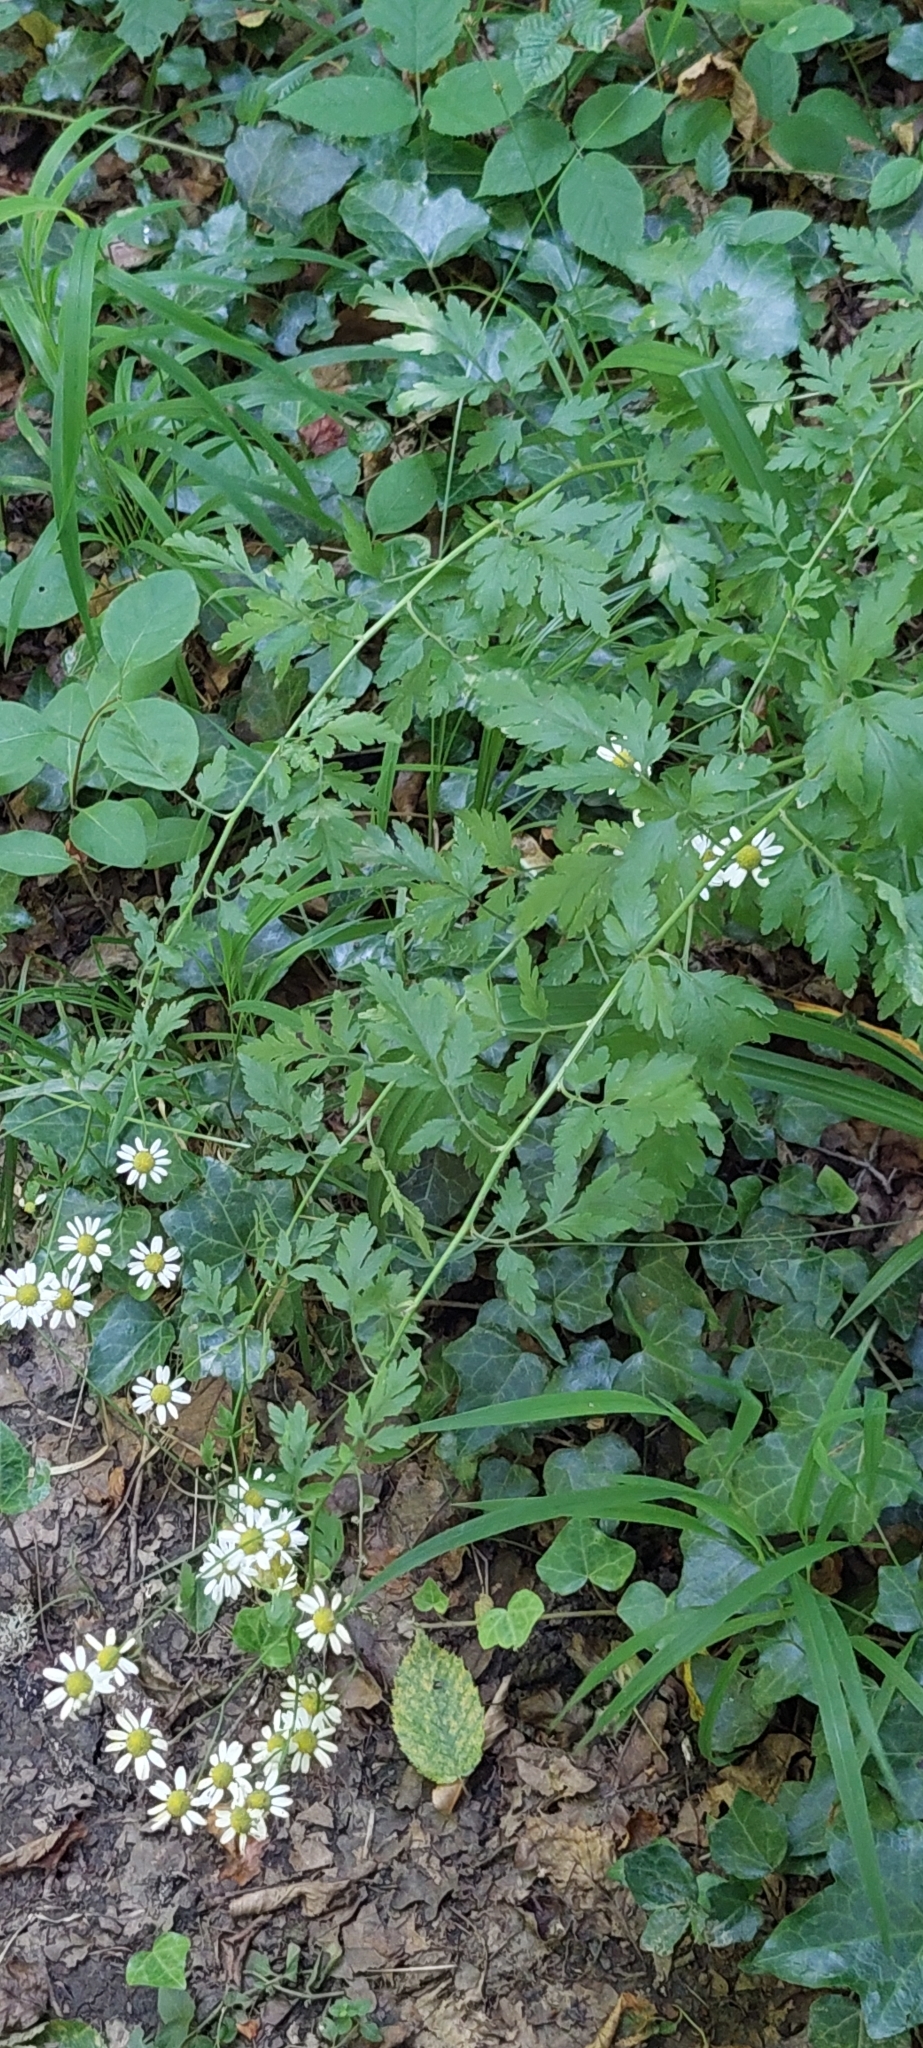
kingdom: Plantae
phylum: Tracheophyta
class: Magnoliopsida
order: Asterales
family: Asteraceae
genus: Tanacetum
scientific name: Tanacetum partheniifolium
